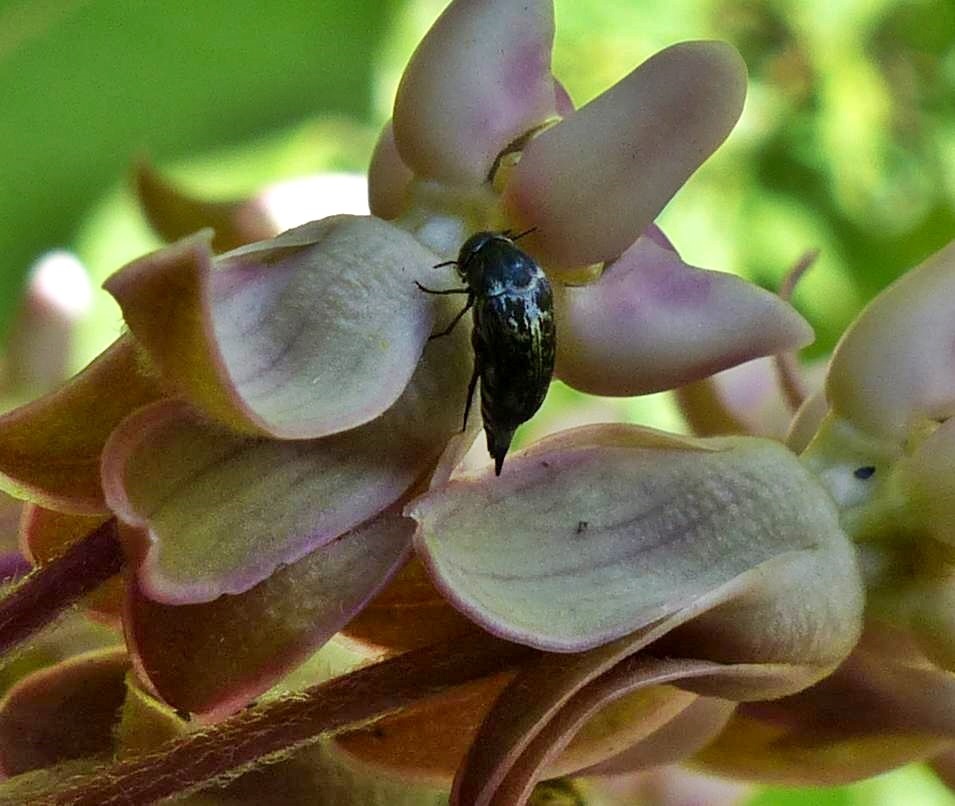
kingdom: Animalia
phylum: Arthropoda
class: Insecta
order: Coleoptera
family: Mordellidae
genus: Mordella
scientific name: Mordella marginata
